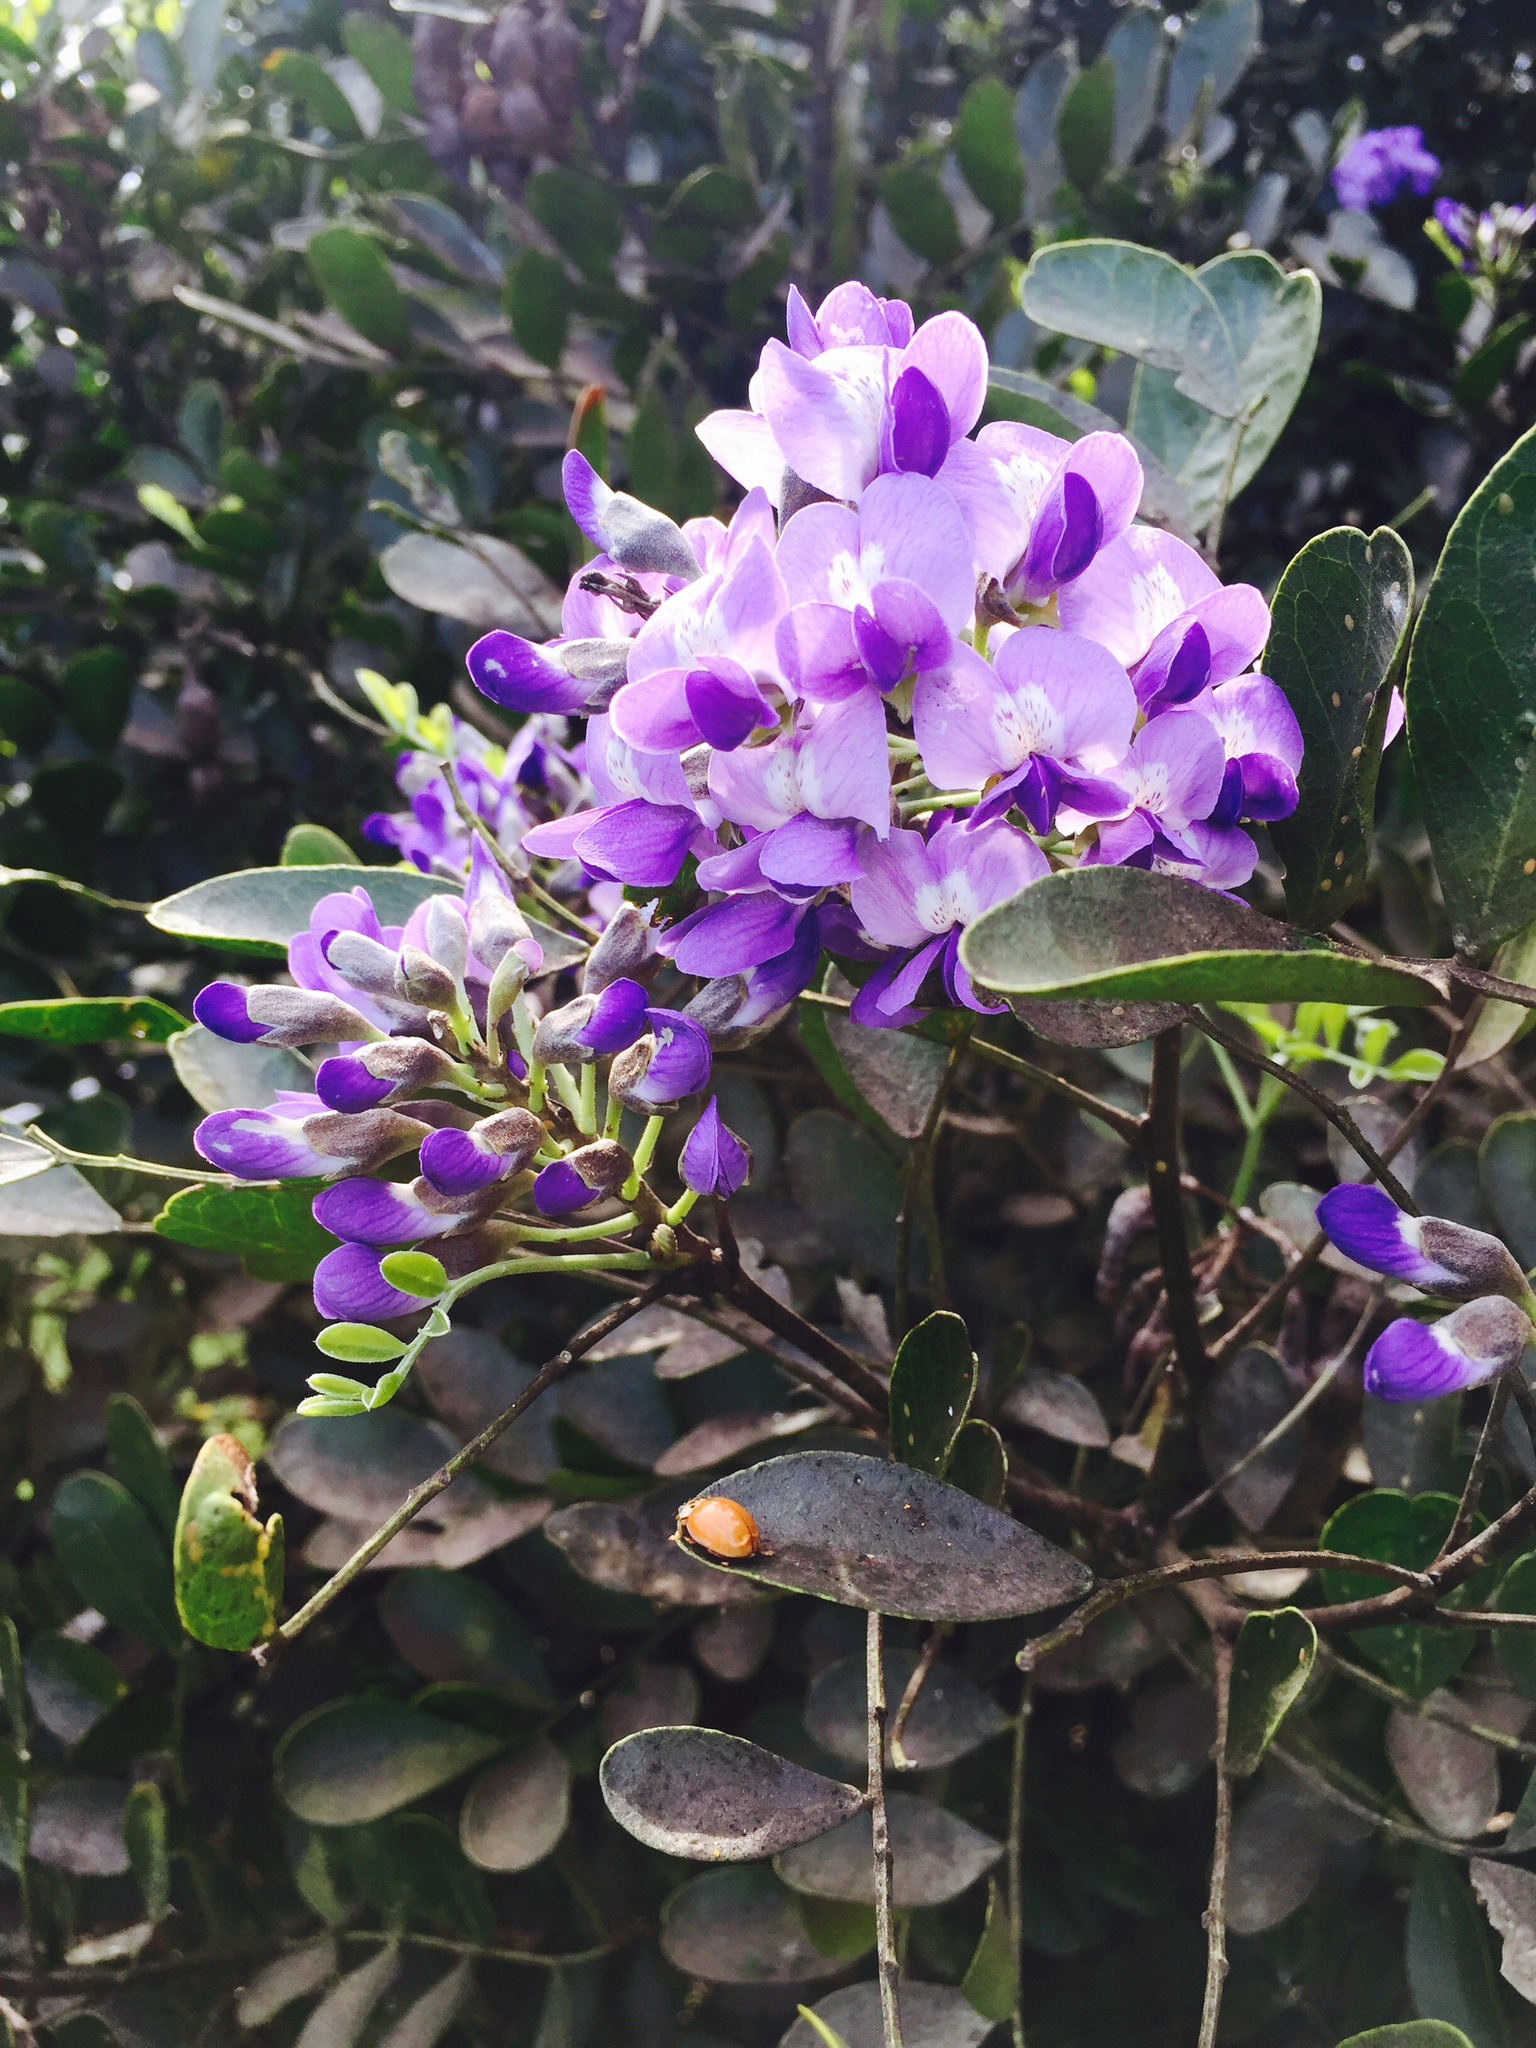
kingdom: Plantae
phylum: Tracheophyta
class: Magnoliopsida
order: Fabales
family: Fabaceae
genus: Dermatophyllum
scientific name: Dermatophyllum secundiflorum
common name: Texas-mountain-laurel
